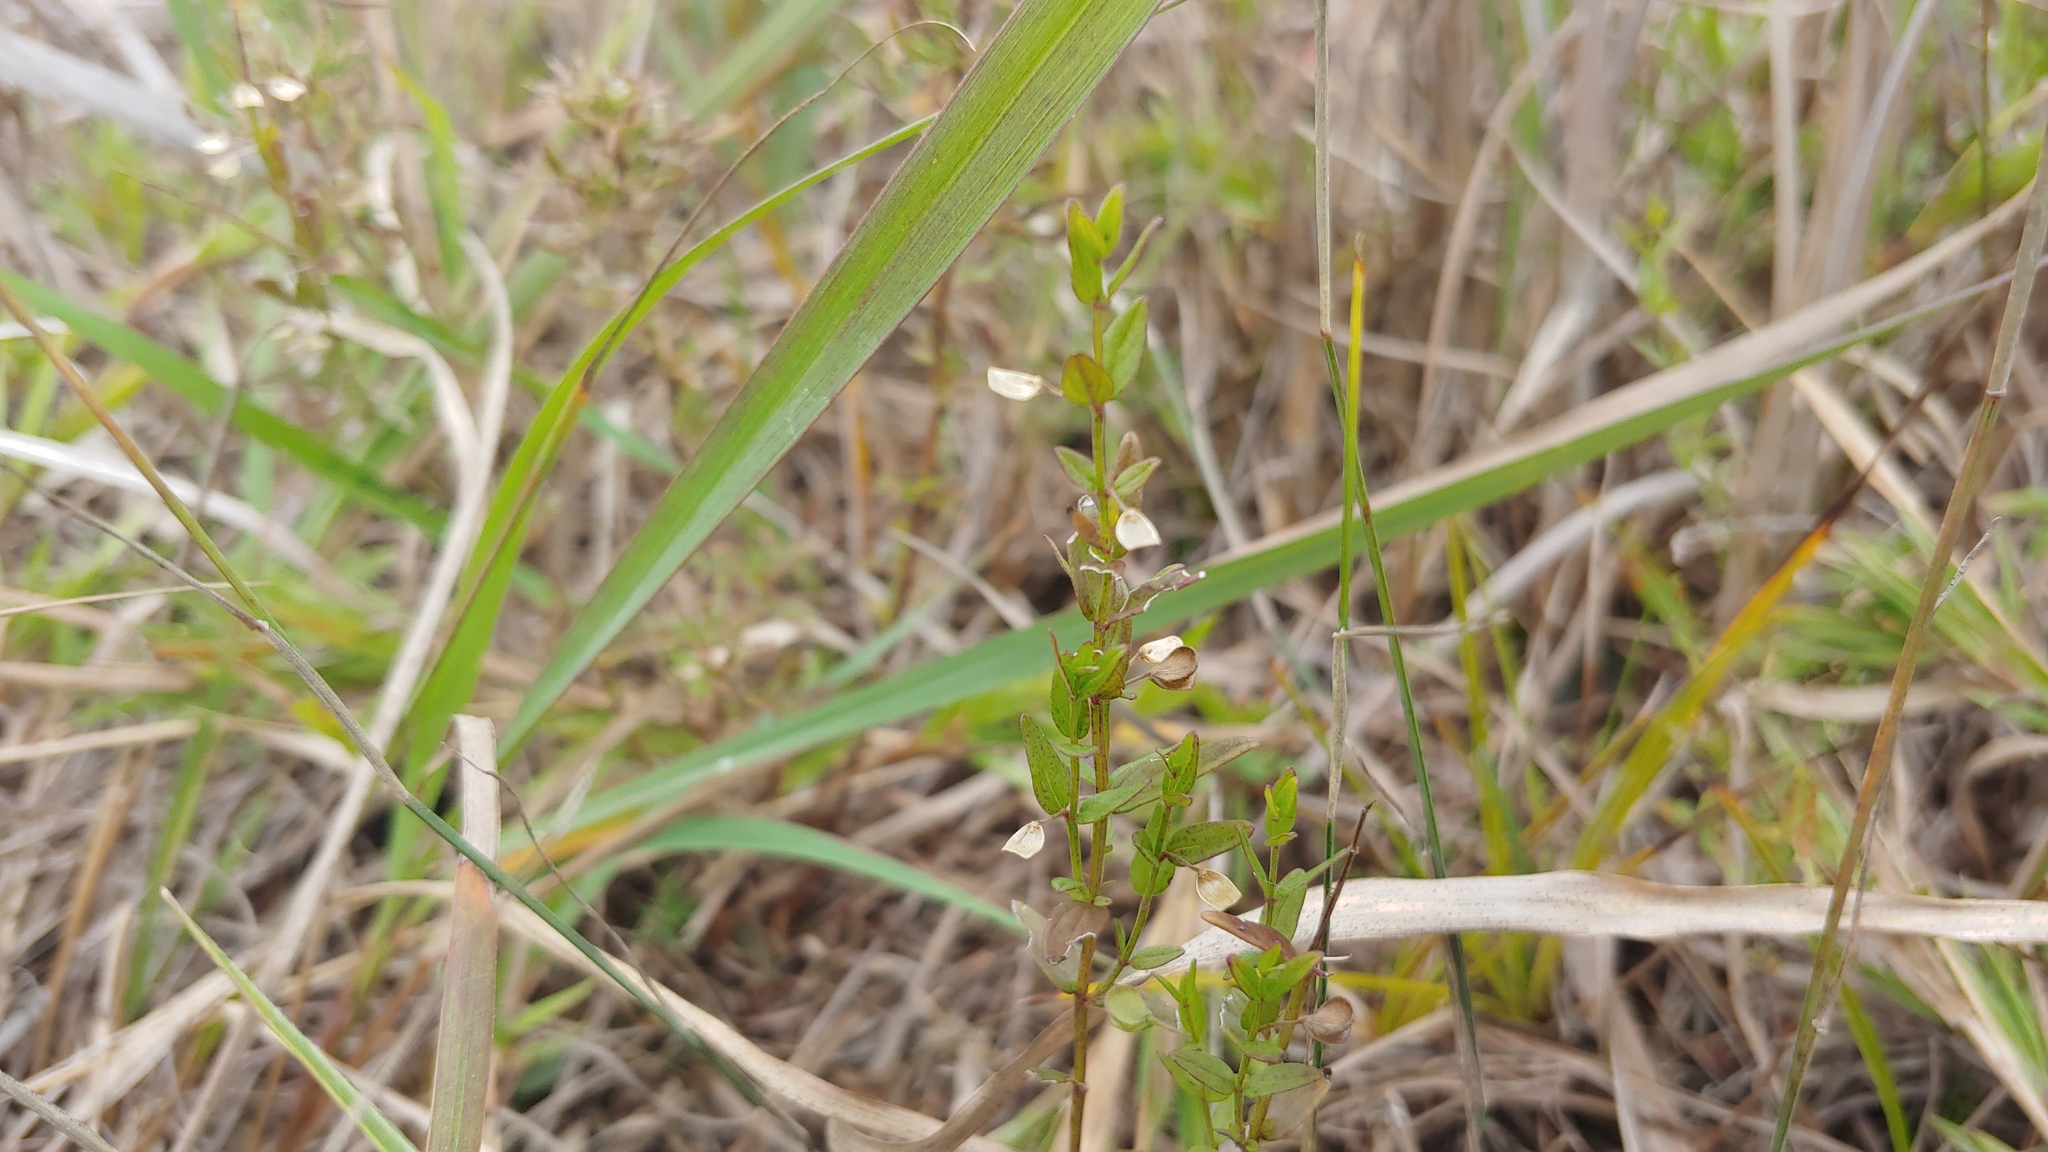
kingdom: Plantae
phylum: Tracheophyta
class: Magnoliopsida
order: Lamiales
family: Lamiaceae
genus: Scutellaria
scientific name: Scutellaria parvula
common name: Little scullcap
